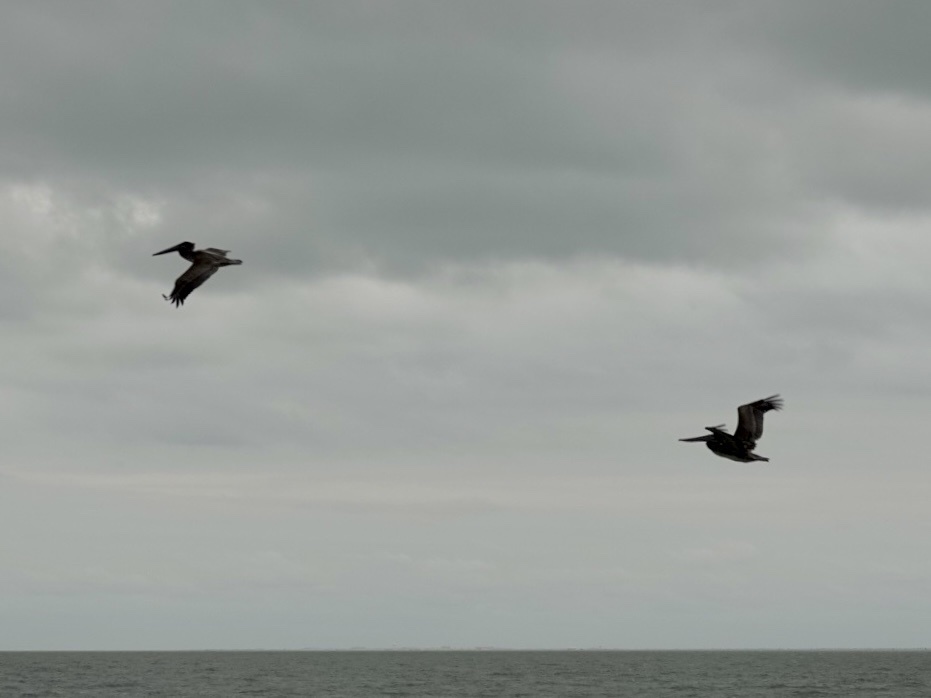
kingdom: Animalia
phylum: Chordata
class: Aves
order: Pelecaniformes
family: Pelecanidae
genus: Pelecanus
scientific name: Pelecanus occidentalis
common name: Brown pelican
